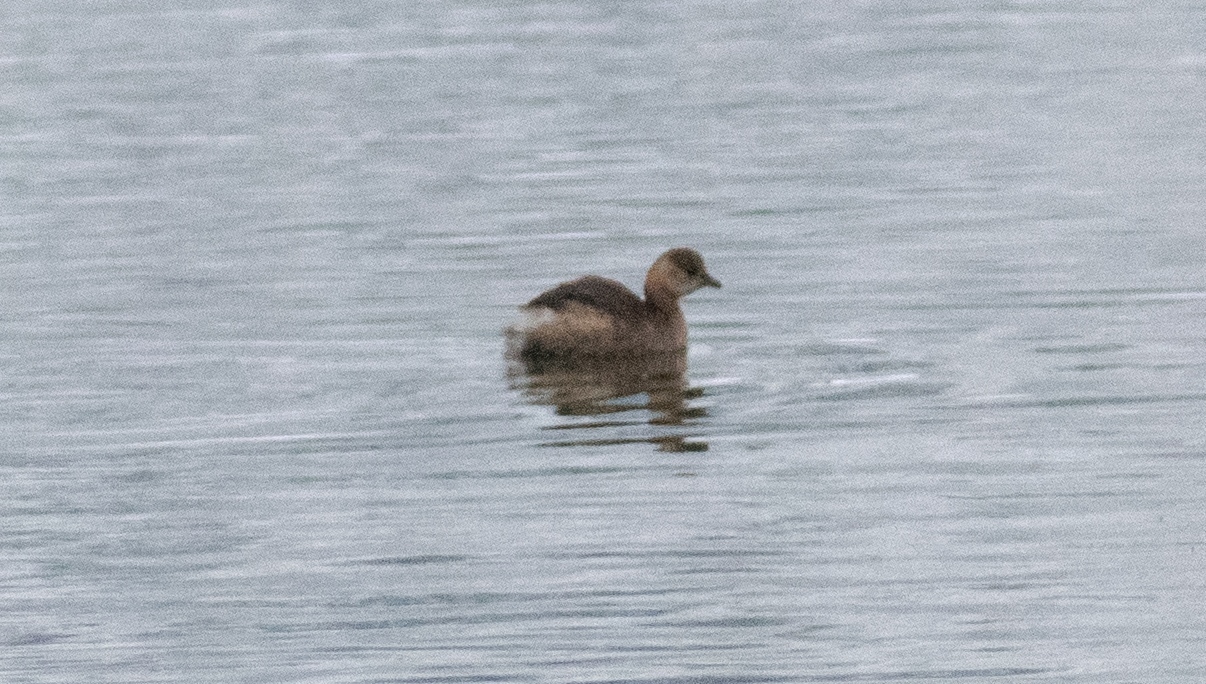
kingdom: Animalia
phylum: Chordata
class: Aves
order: Podicipediformes
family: Podicipedidae
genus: Tachybaptus
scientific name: Tachybaptus ruficollis
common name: Little grebe
